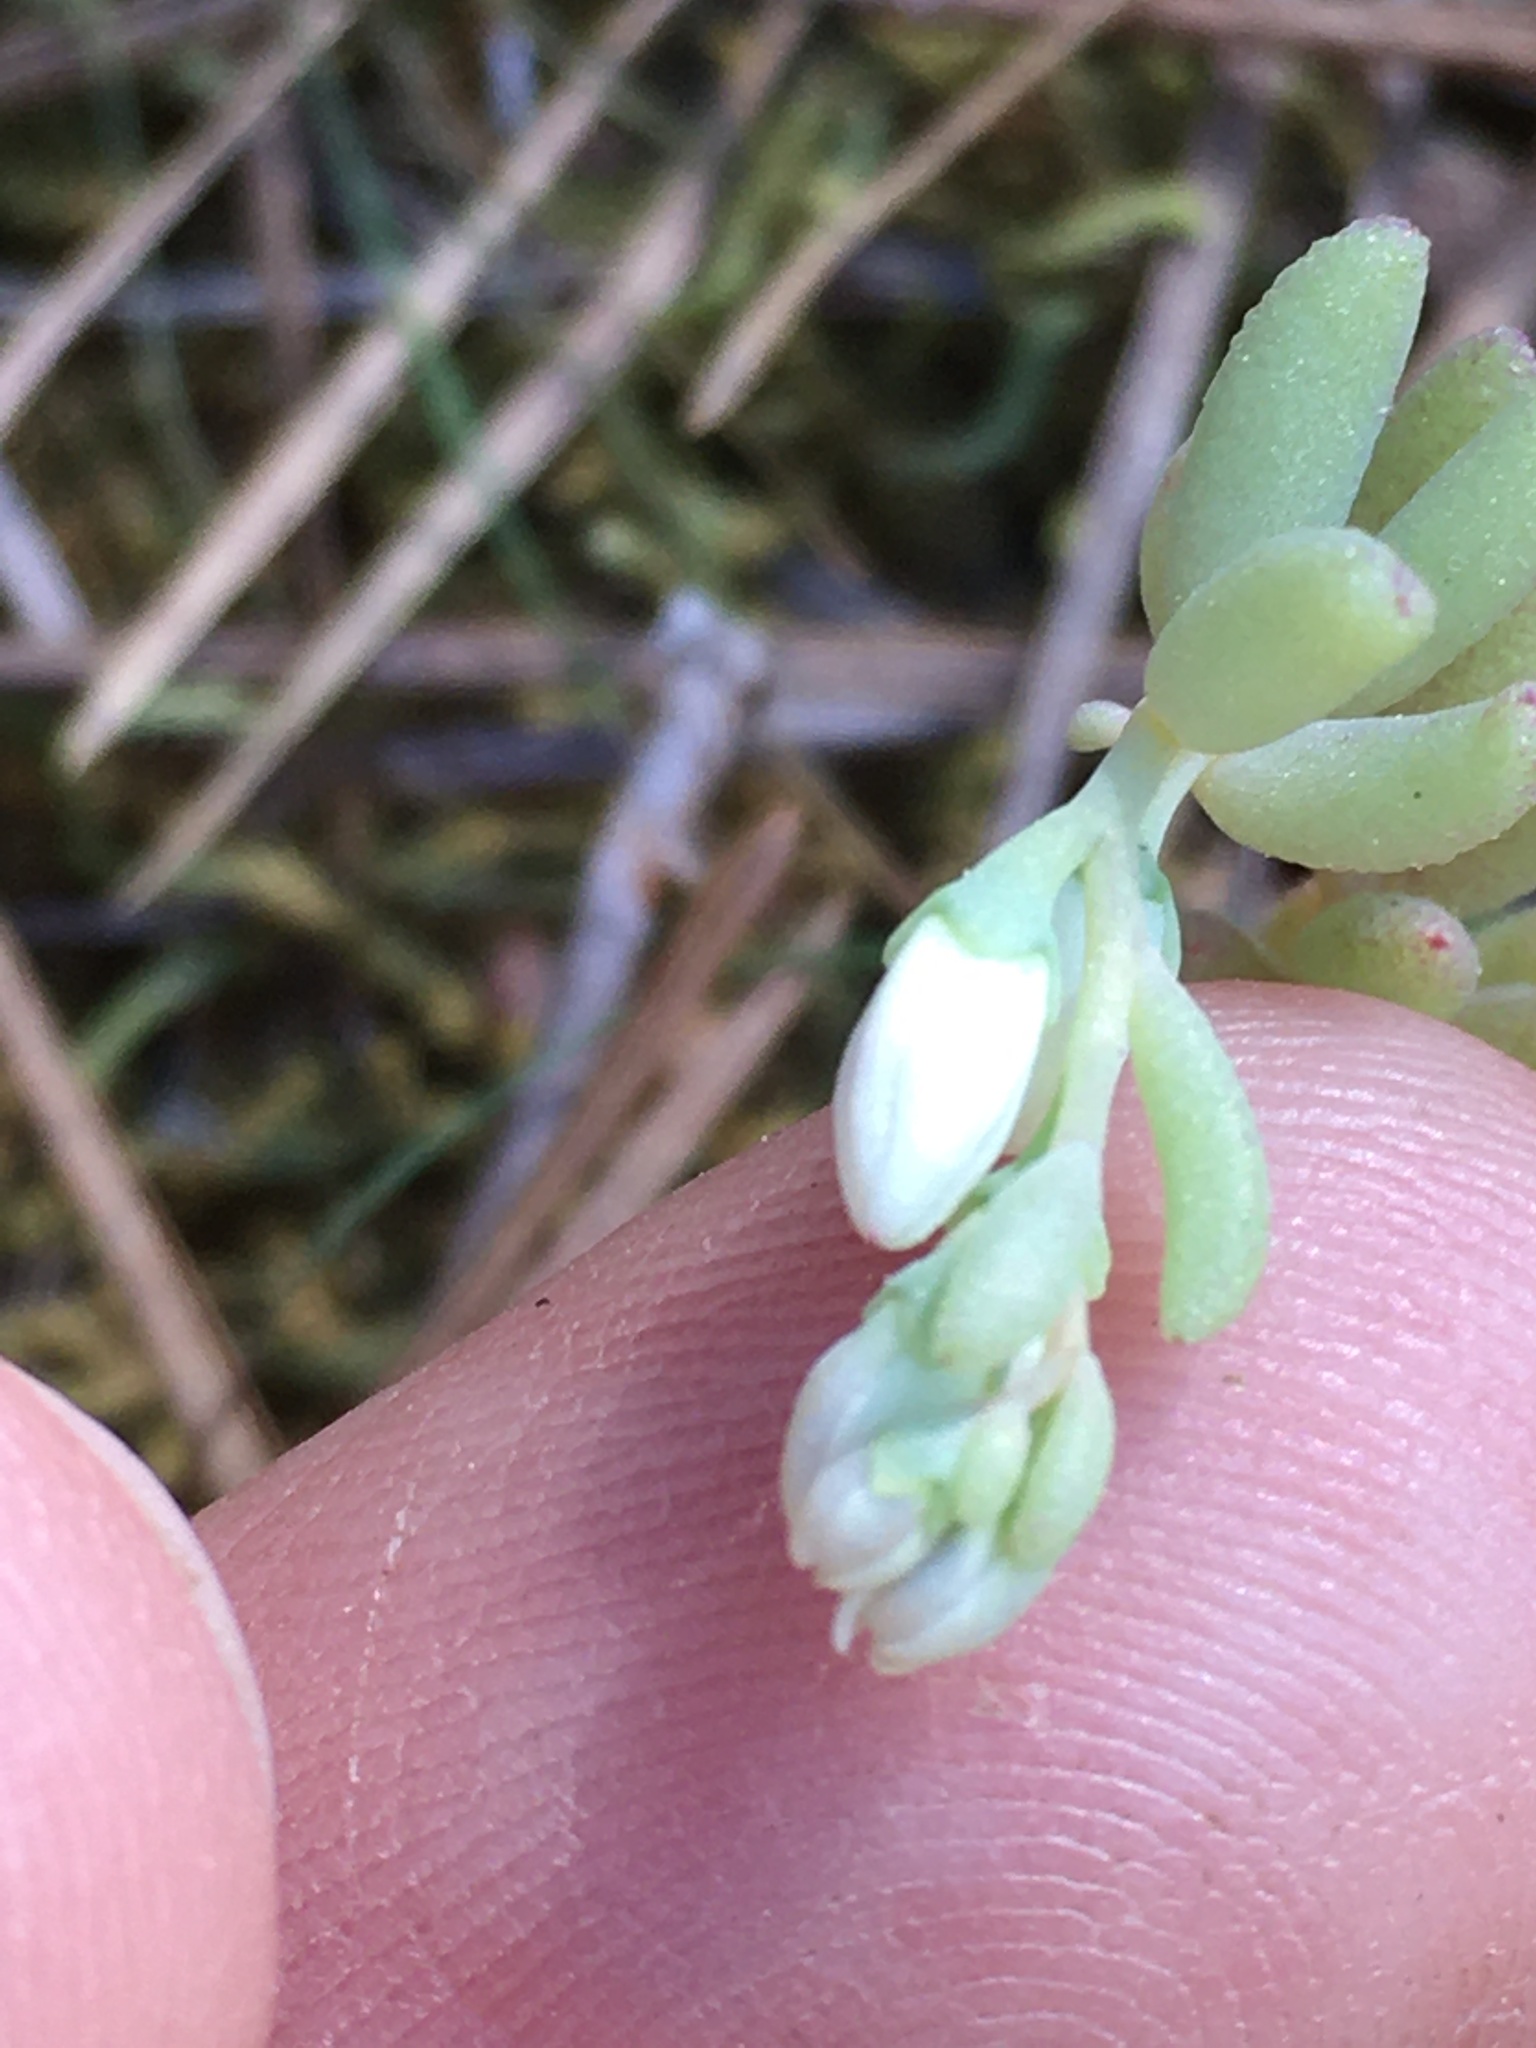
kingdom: Plantae
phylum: Tracheophyta
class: Magnoliopsida
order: Saxifragales
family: Crassulaceae
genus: Sedum
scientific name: Sedum pusillum
